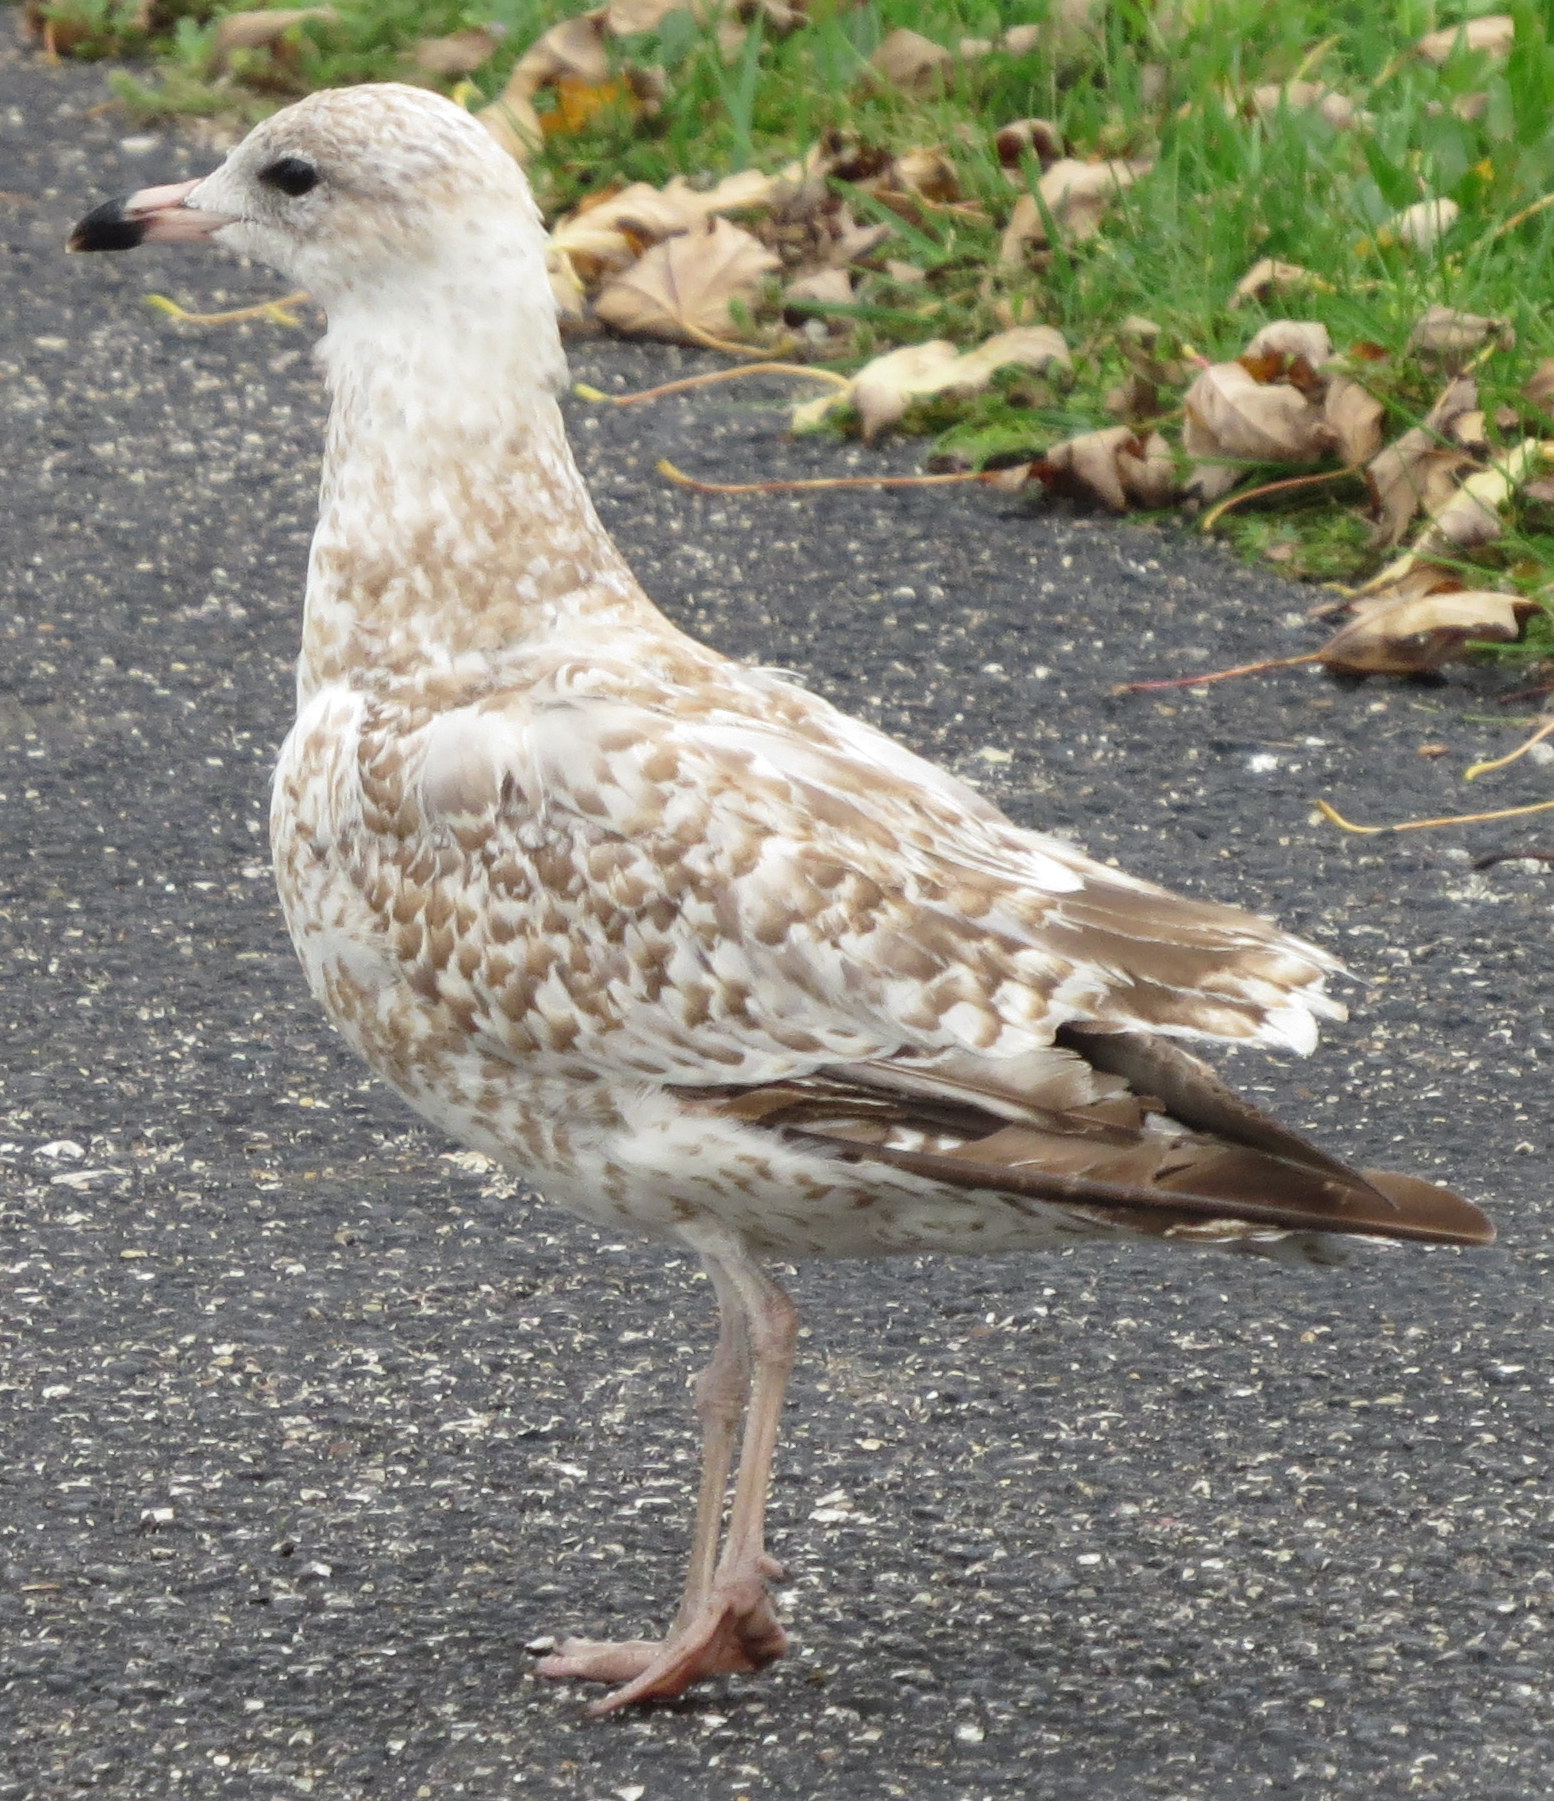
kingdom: Animalia
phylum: Chordata
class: Aves
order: Charadriiformes
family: Laridae
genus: Larus
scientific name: Larus delawarensis
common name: Ring-billed gull
